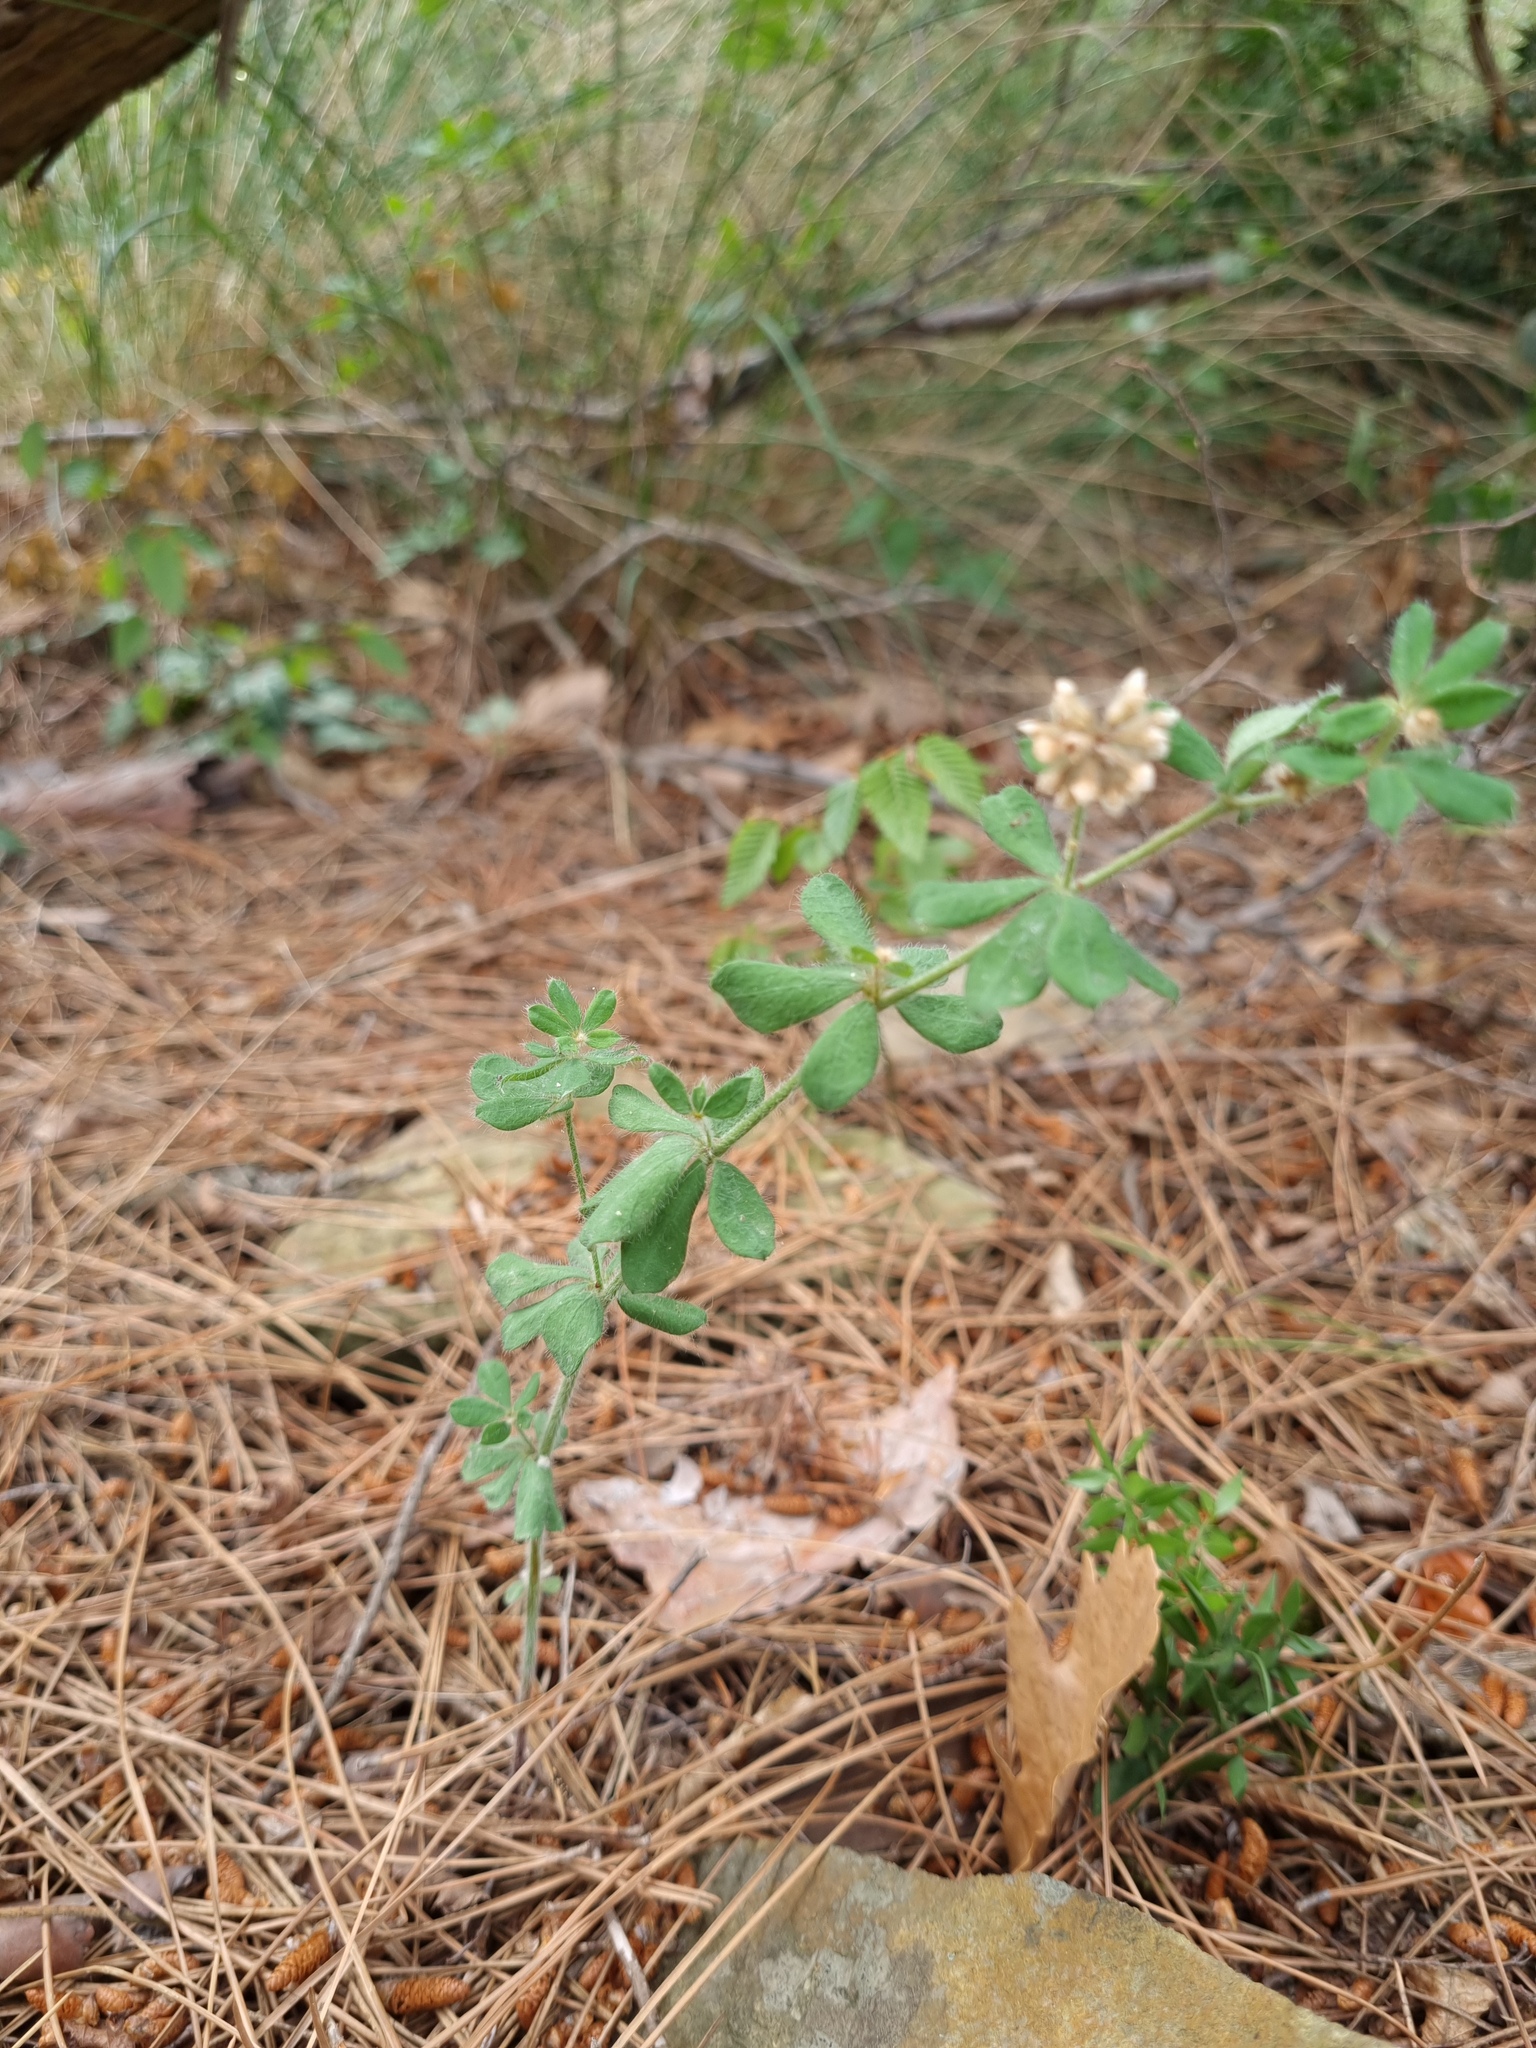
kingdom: Plantae
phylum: Tracheophyta
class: Magnoliopsida
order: Fabales
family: Fabaceae
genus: Lotus
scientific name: Lotus herbaceus
